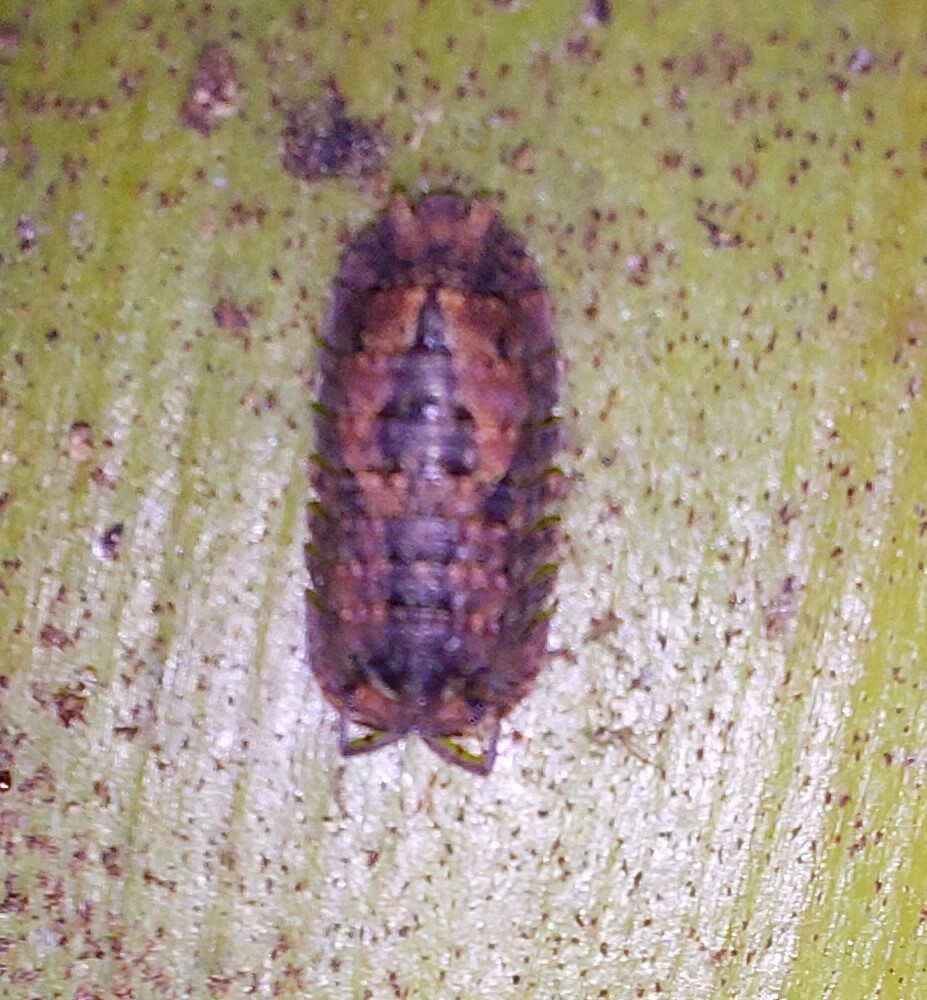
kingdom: Animalia
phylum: Arthropoda
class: Malacostraca
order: Isopoda
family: Armadillidae
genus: Cubaris
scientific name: Cubaris tarangensis
